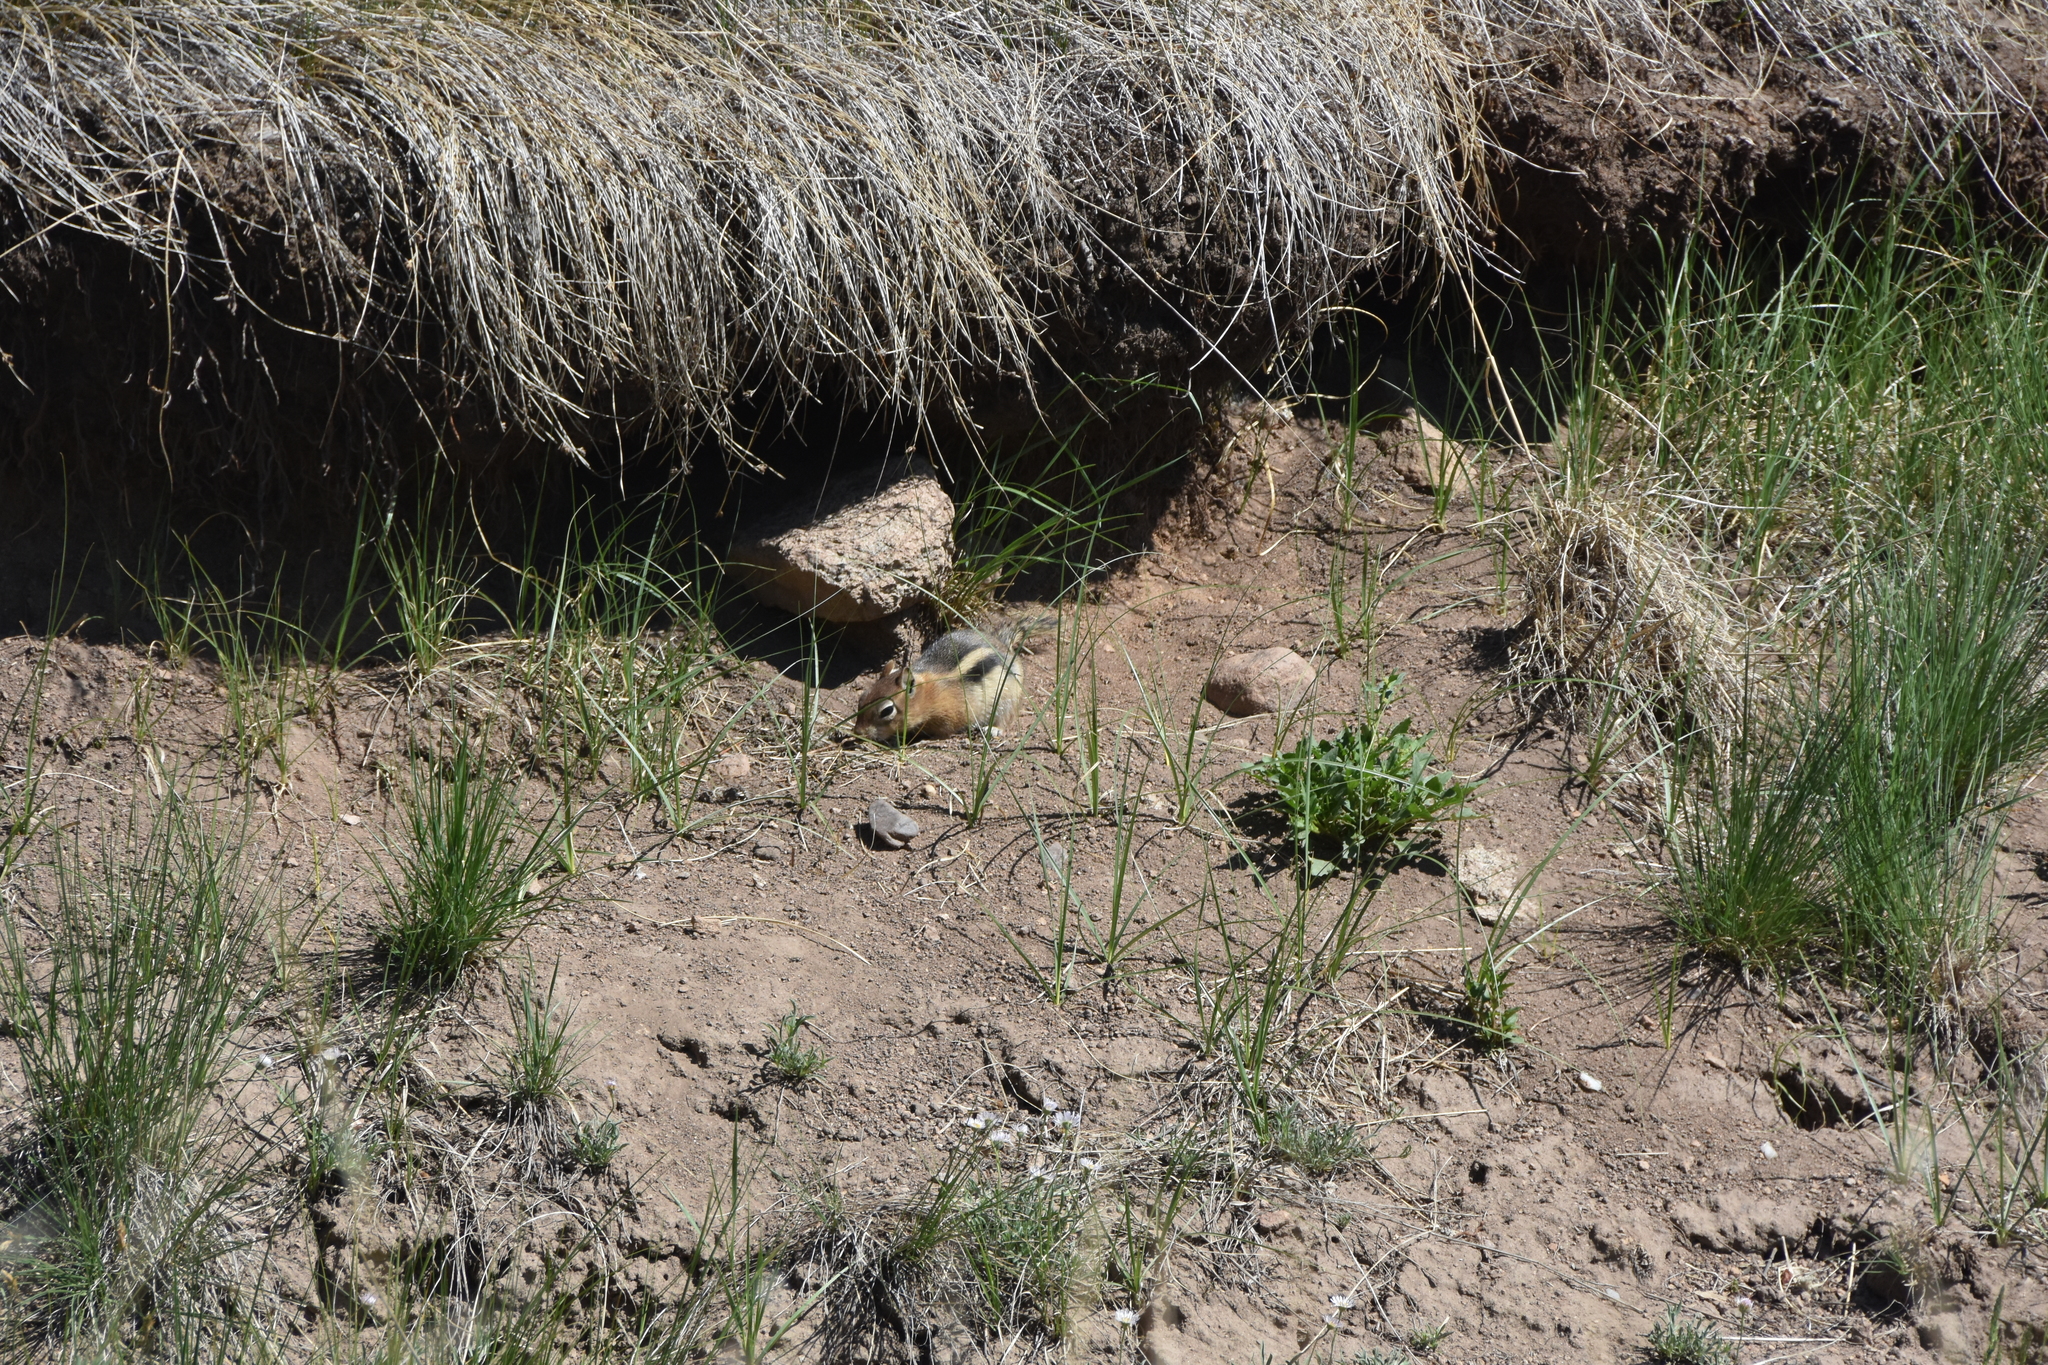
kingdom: Animalia
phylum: Chordata
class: Mammalia
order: Rodentia
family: Sciuridae
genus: Callospermophilus
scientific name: Callospermophilus lateralis
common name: Golden-mantled ground squirrel
